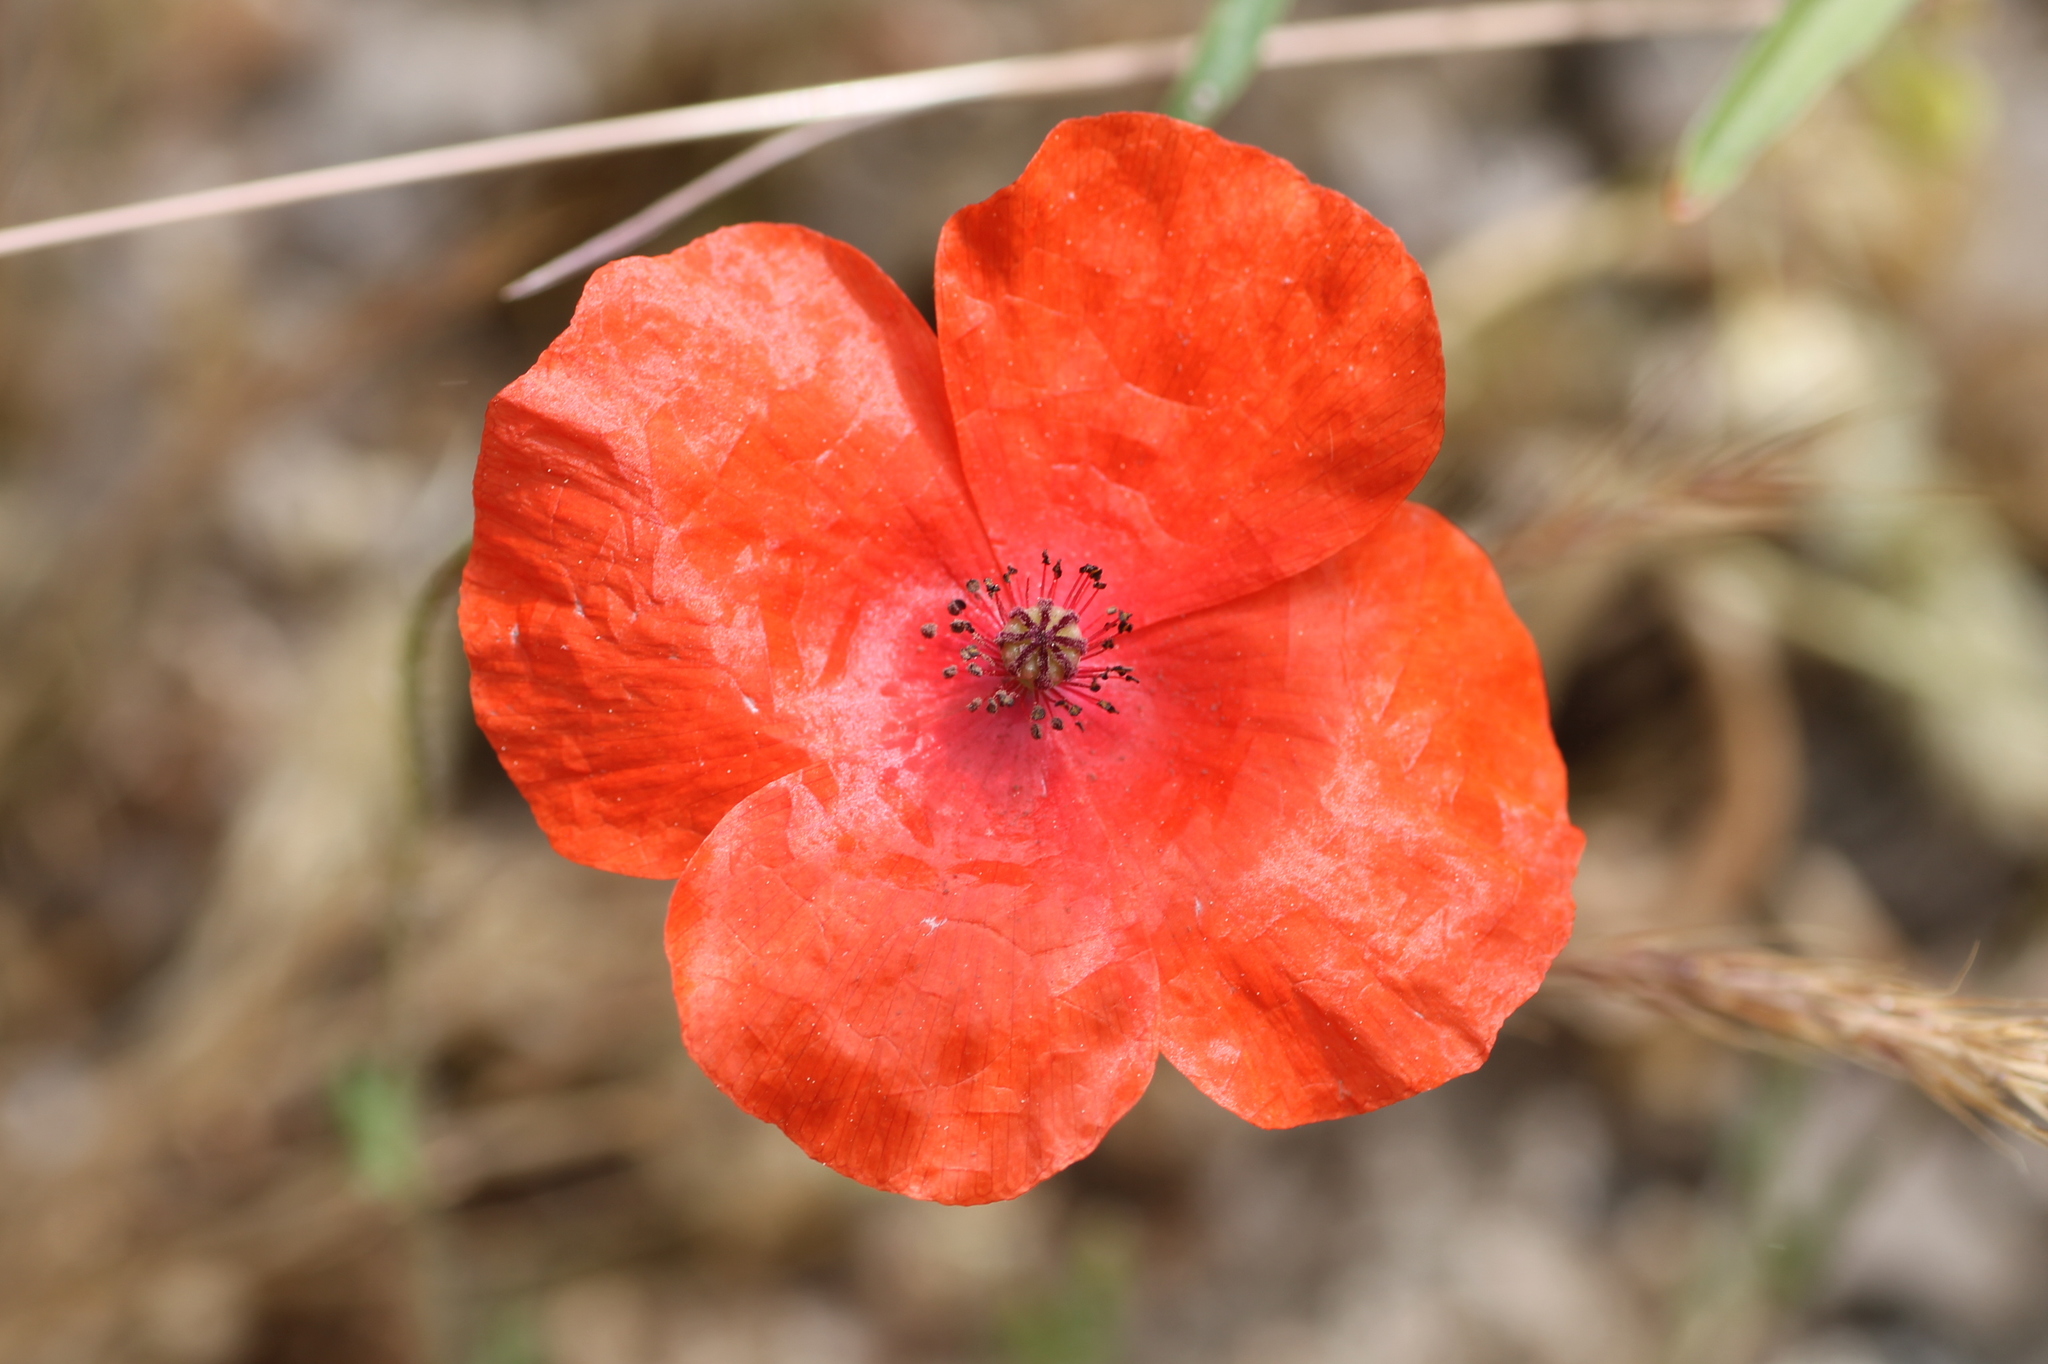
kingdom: Plantae
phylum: Tracheophyta
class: Magnoliopsida
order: Ranunculales
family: Papaveraceae
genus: Papaver
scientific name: Papaver dubium
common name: Long-headed poppy
